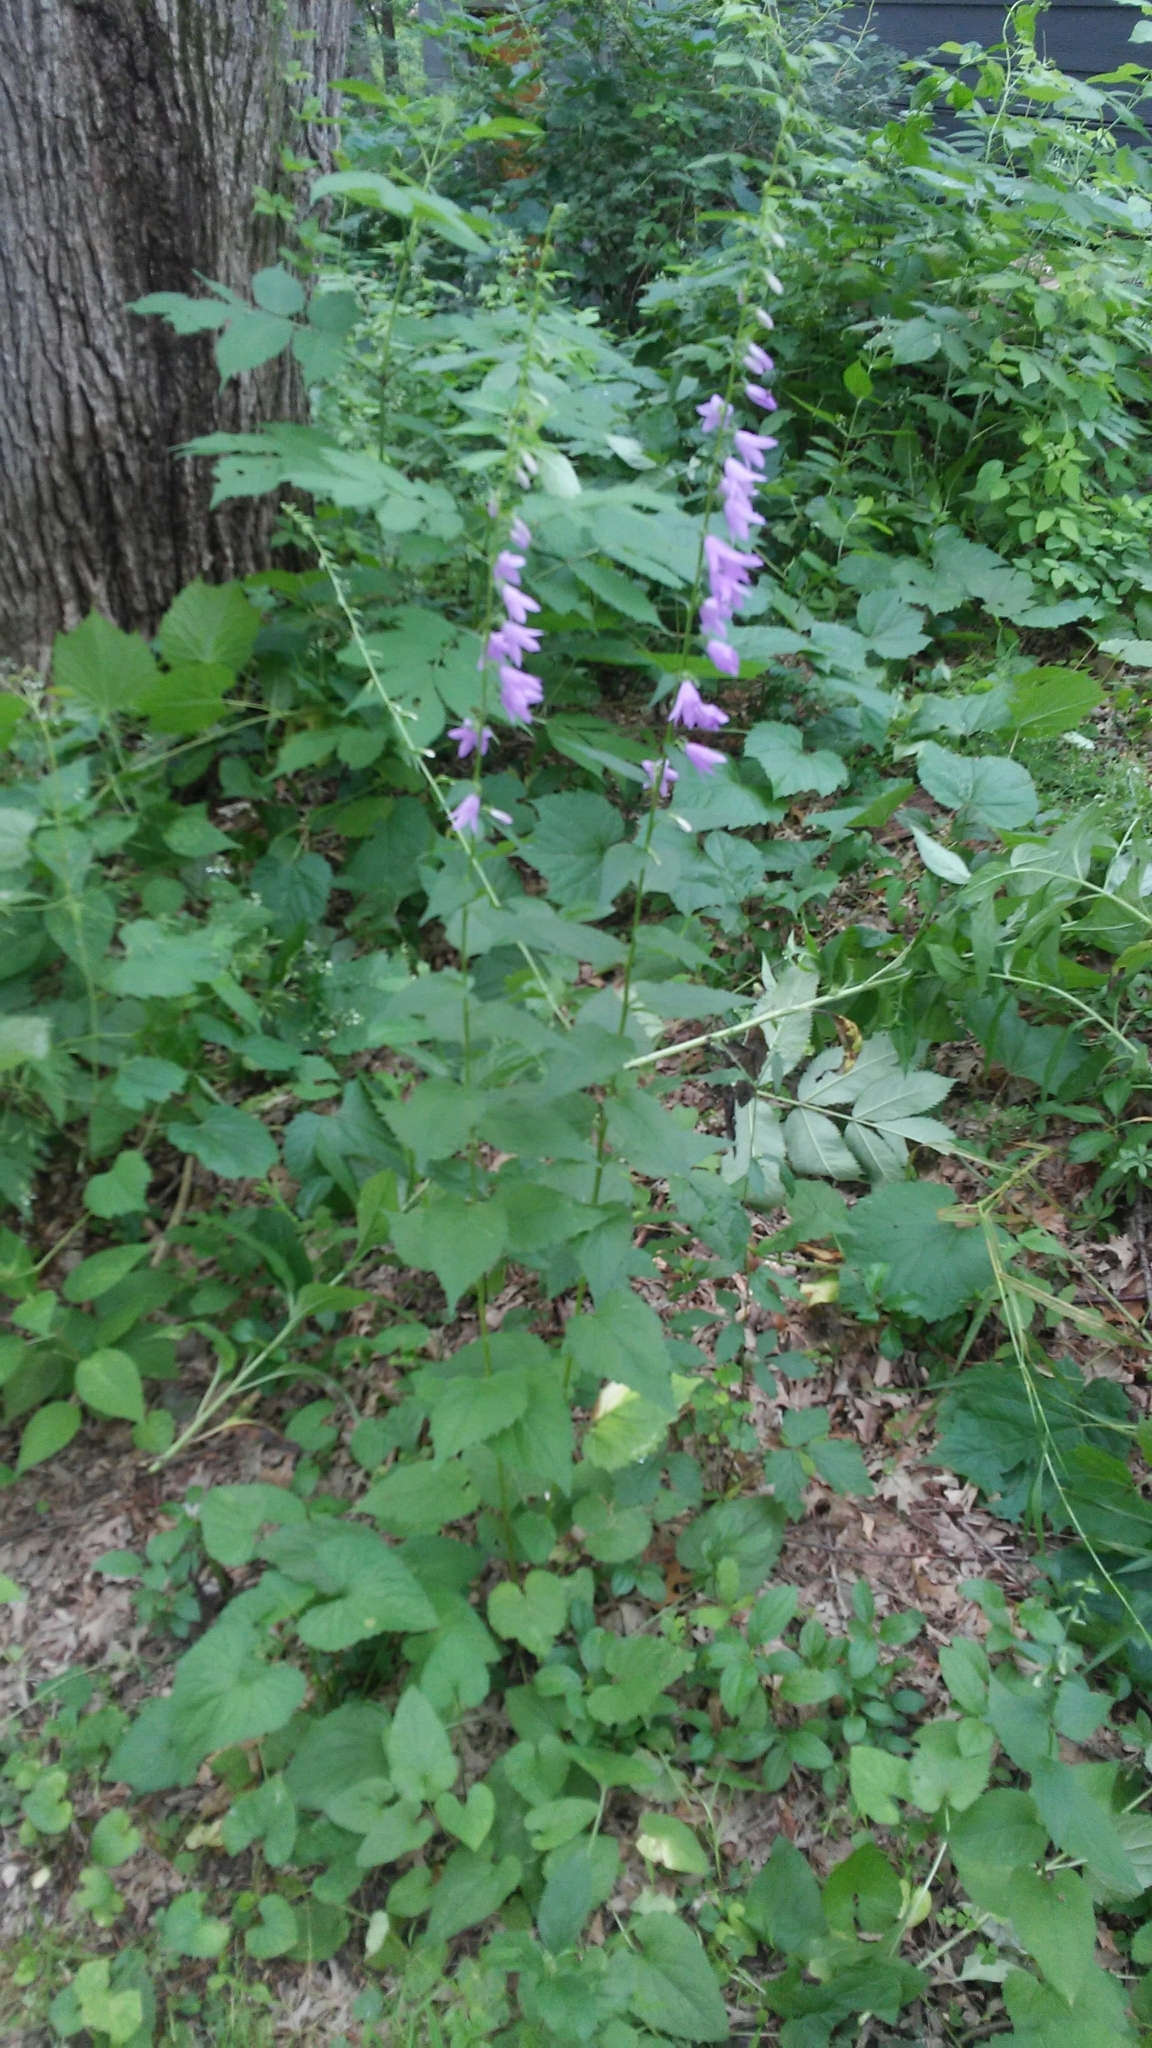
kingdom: Plantae
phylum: Tracheophyta
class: Magnoliopsida
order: Asterales
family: Campanulaceae
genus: Campanula
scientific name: Campanula rapunculoides
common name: Creeping bellflower
